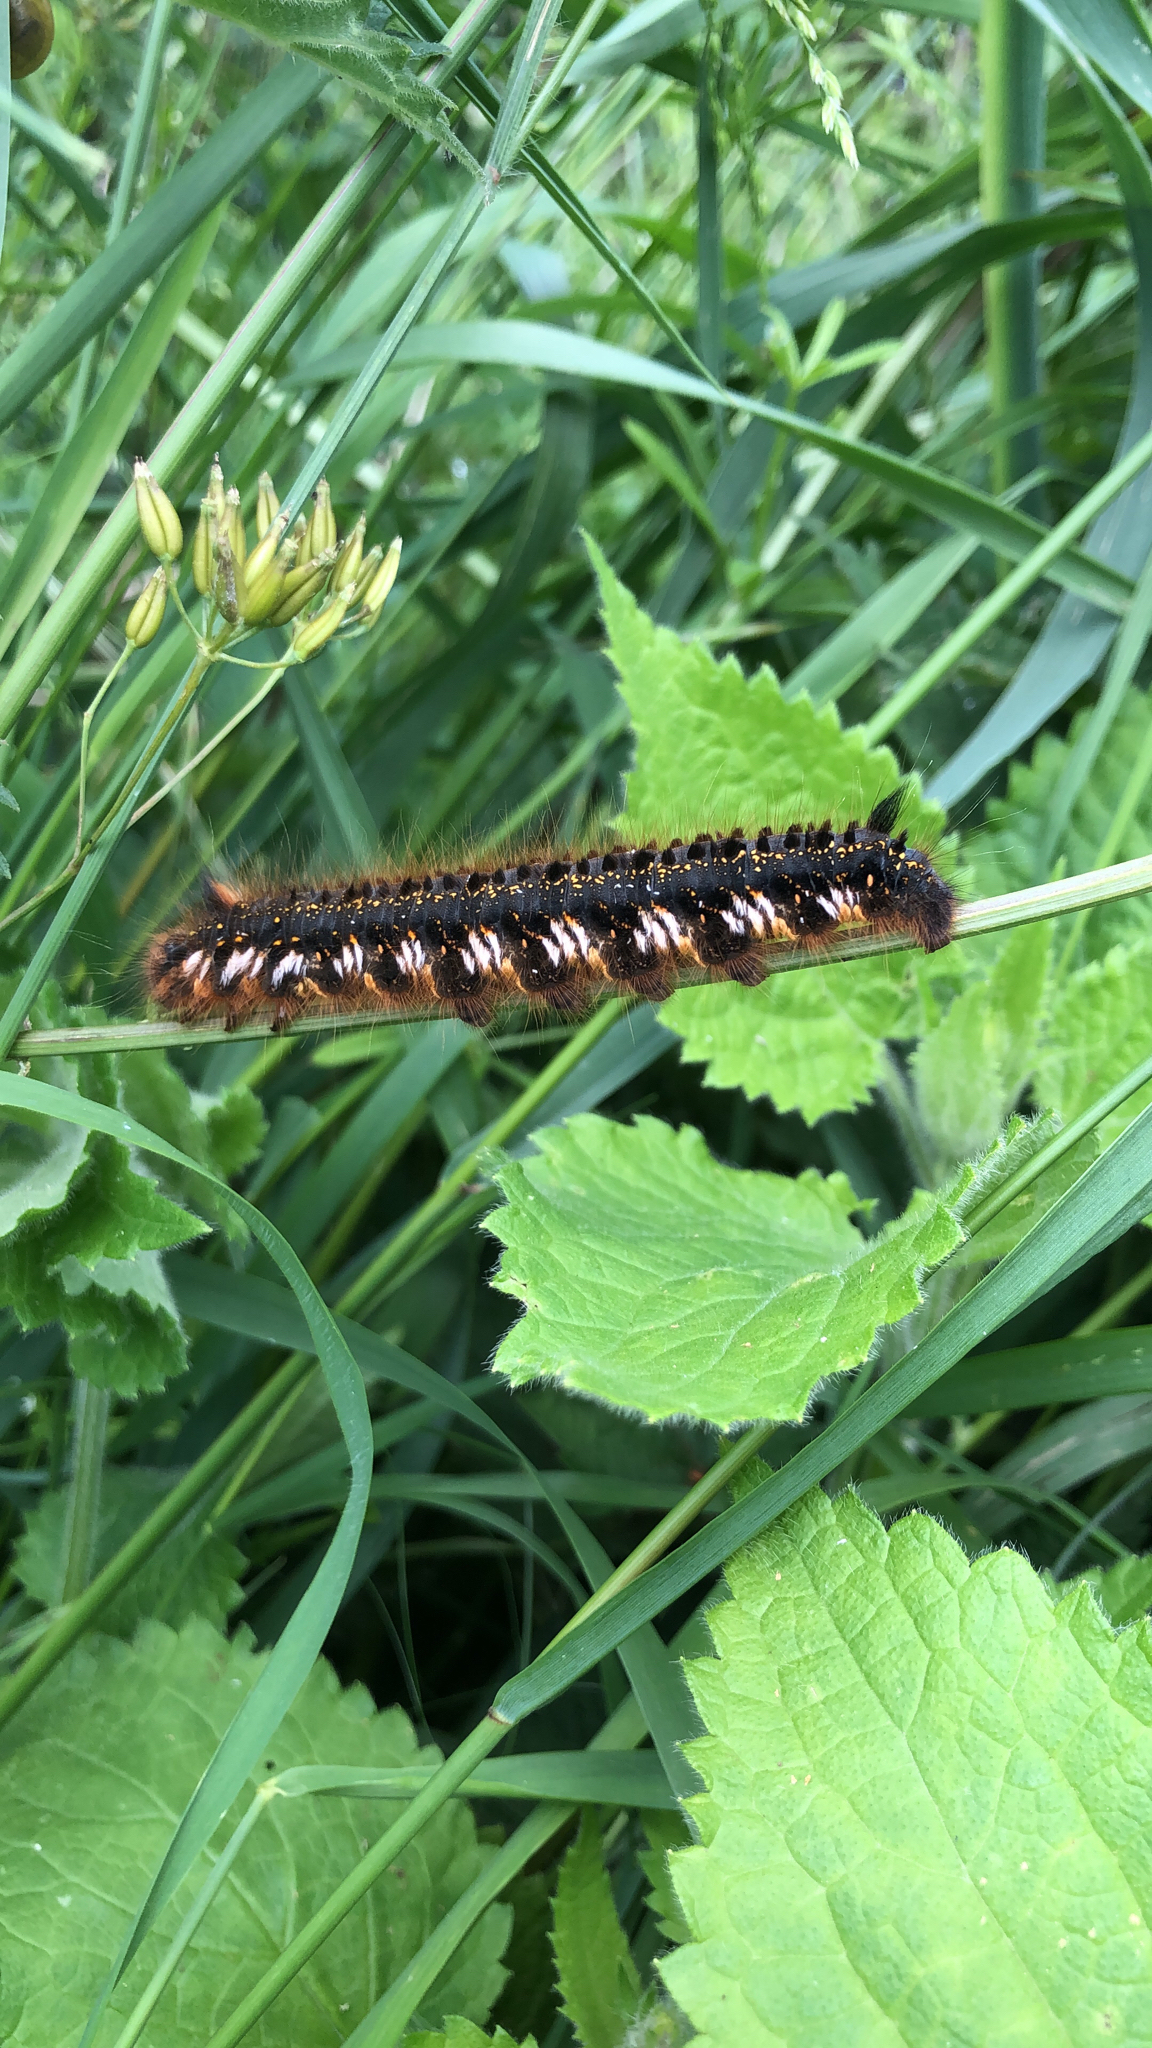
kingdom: Animalia
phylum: Arthropoda
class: Insecta
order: Lepidoptera
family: Lasiocampidae
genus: Euthrix
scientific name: Euthrix potatoria
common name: Drinker
